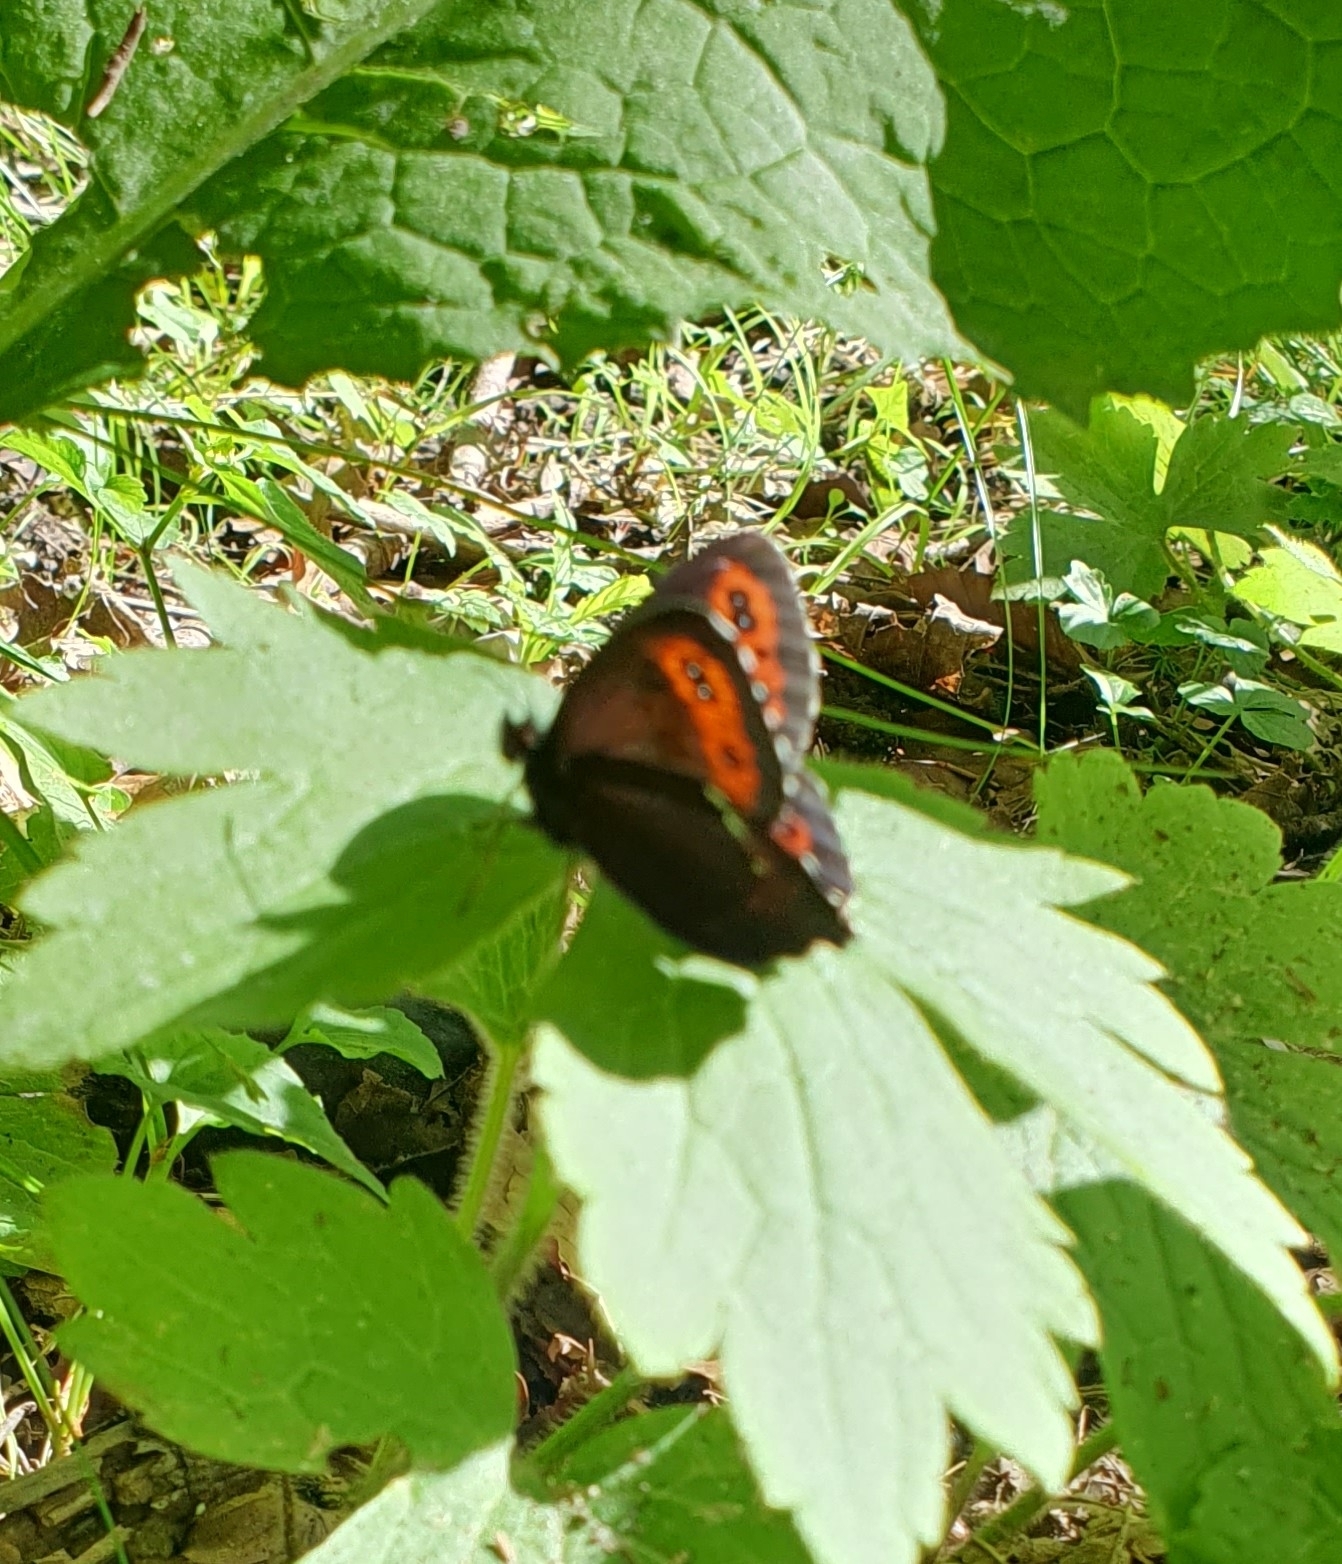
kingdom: Animalia
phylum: Arthropoda
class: Insecta
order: Lepidoptera
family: Nymphalidae
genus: Erebia
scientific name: Erebia ligea
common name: Arran brown
